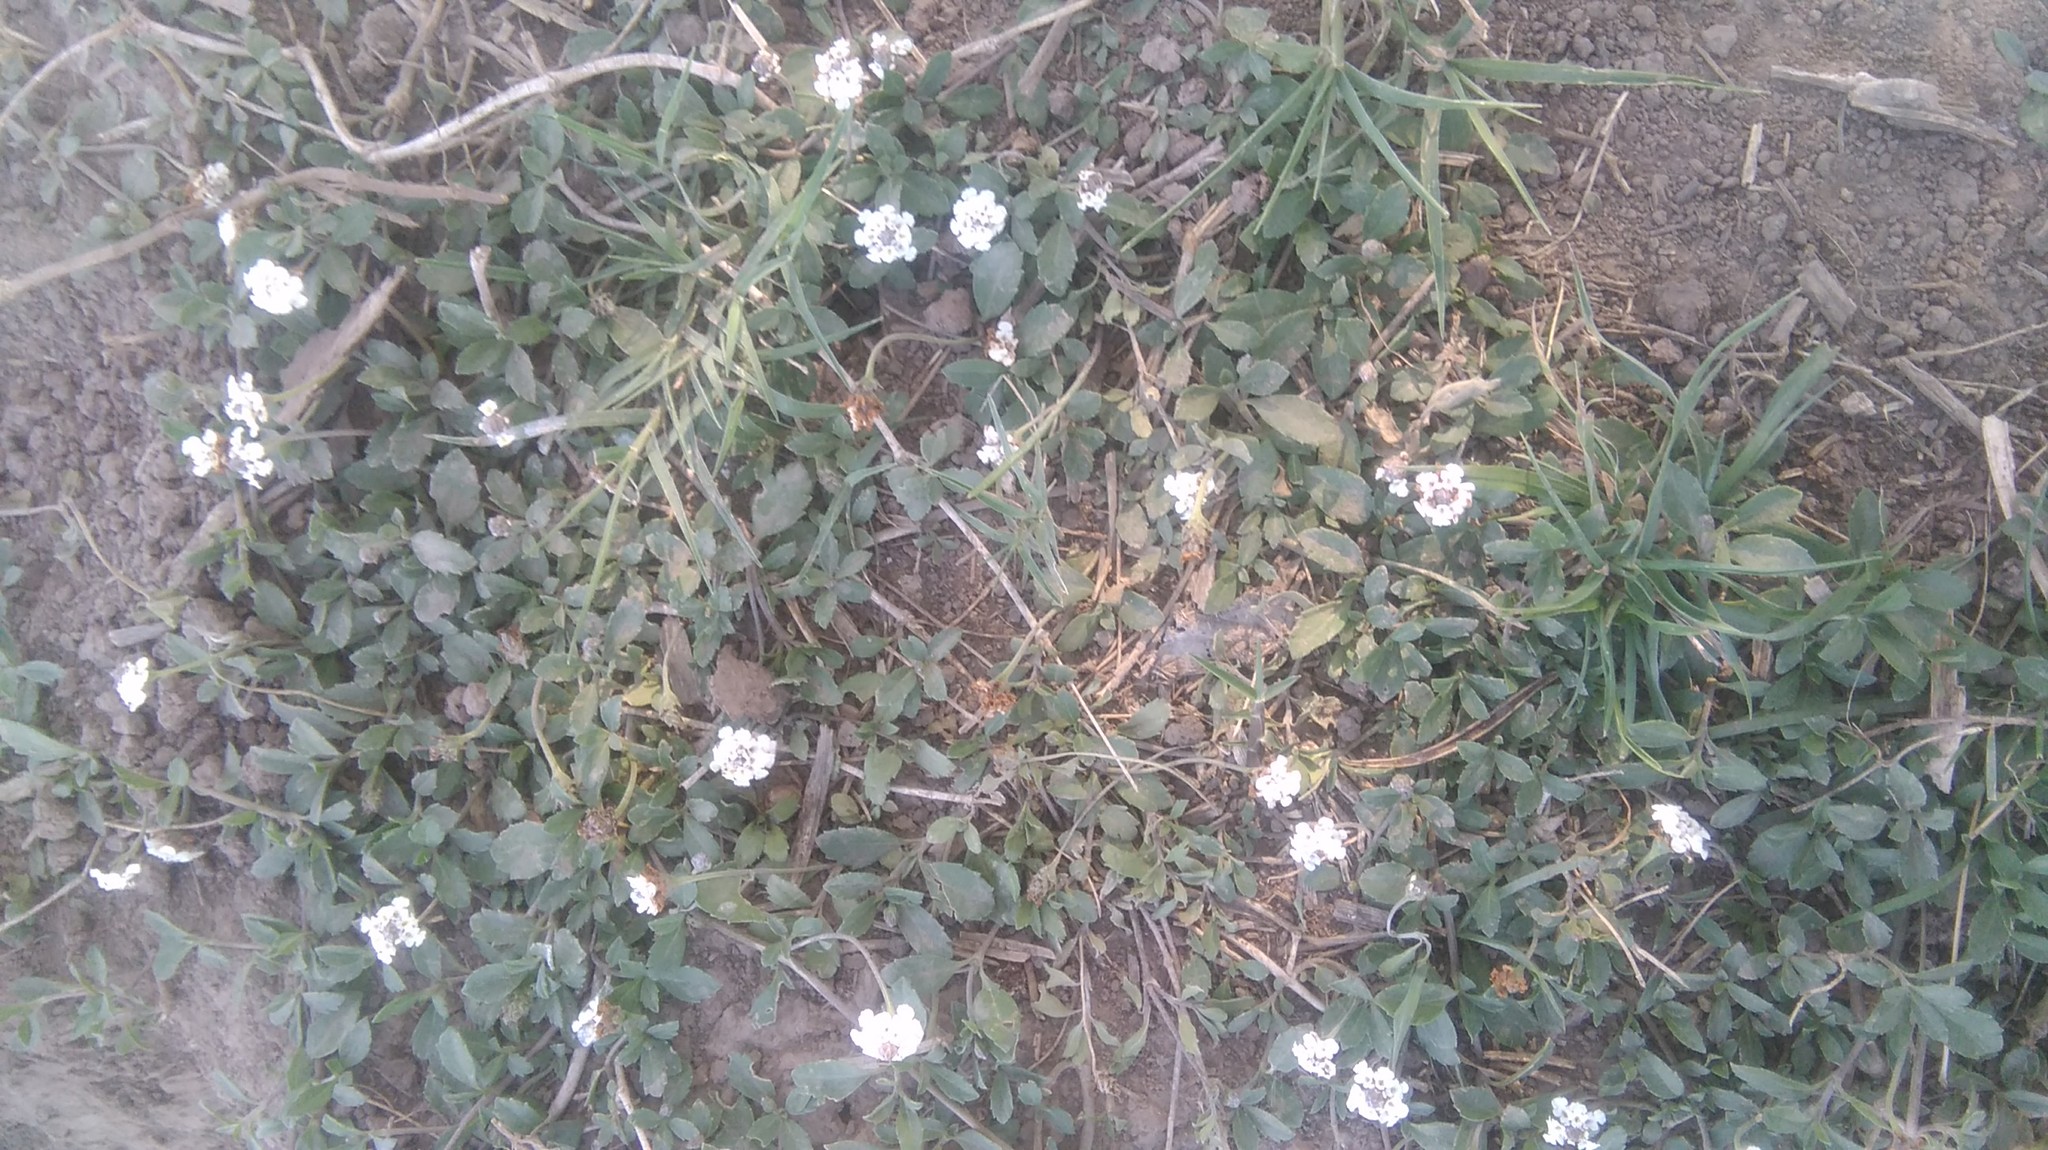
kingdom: Plantae
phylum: Tracheophyta
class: Magnoliopsida
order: Lamiales
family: Verbenaceae
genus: Phyla
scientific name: Phyla nodiflora
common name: Frogfruit
